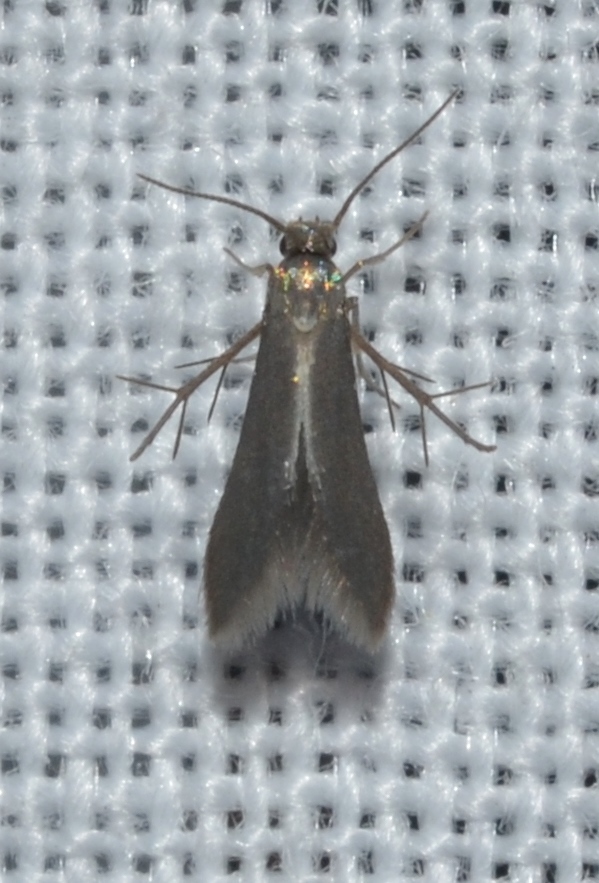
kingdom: Animalia
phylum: Arthropoda
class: Insecta
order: Lepidoptera
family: Schreckensteiniidae
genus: Schreckensteinia
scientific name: Schreckensteinia erythriella
